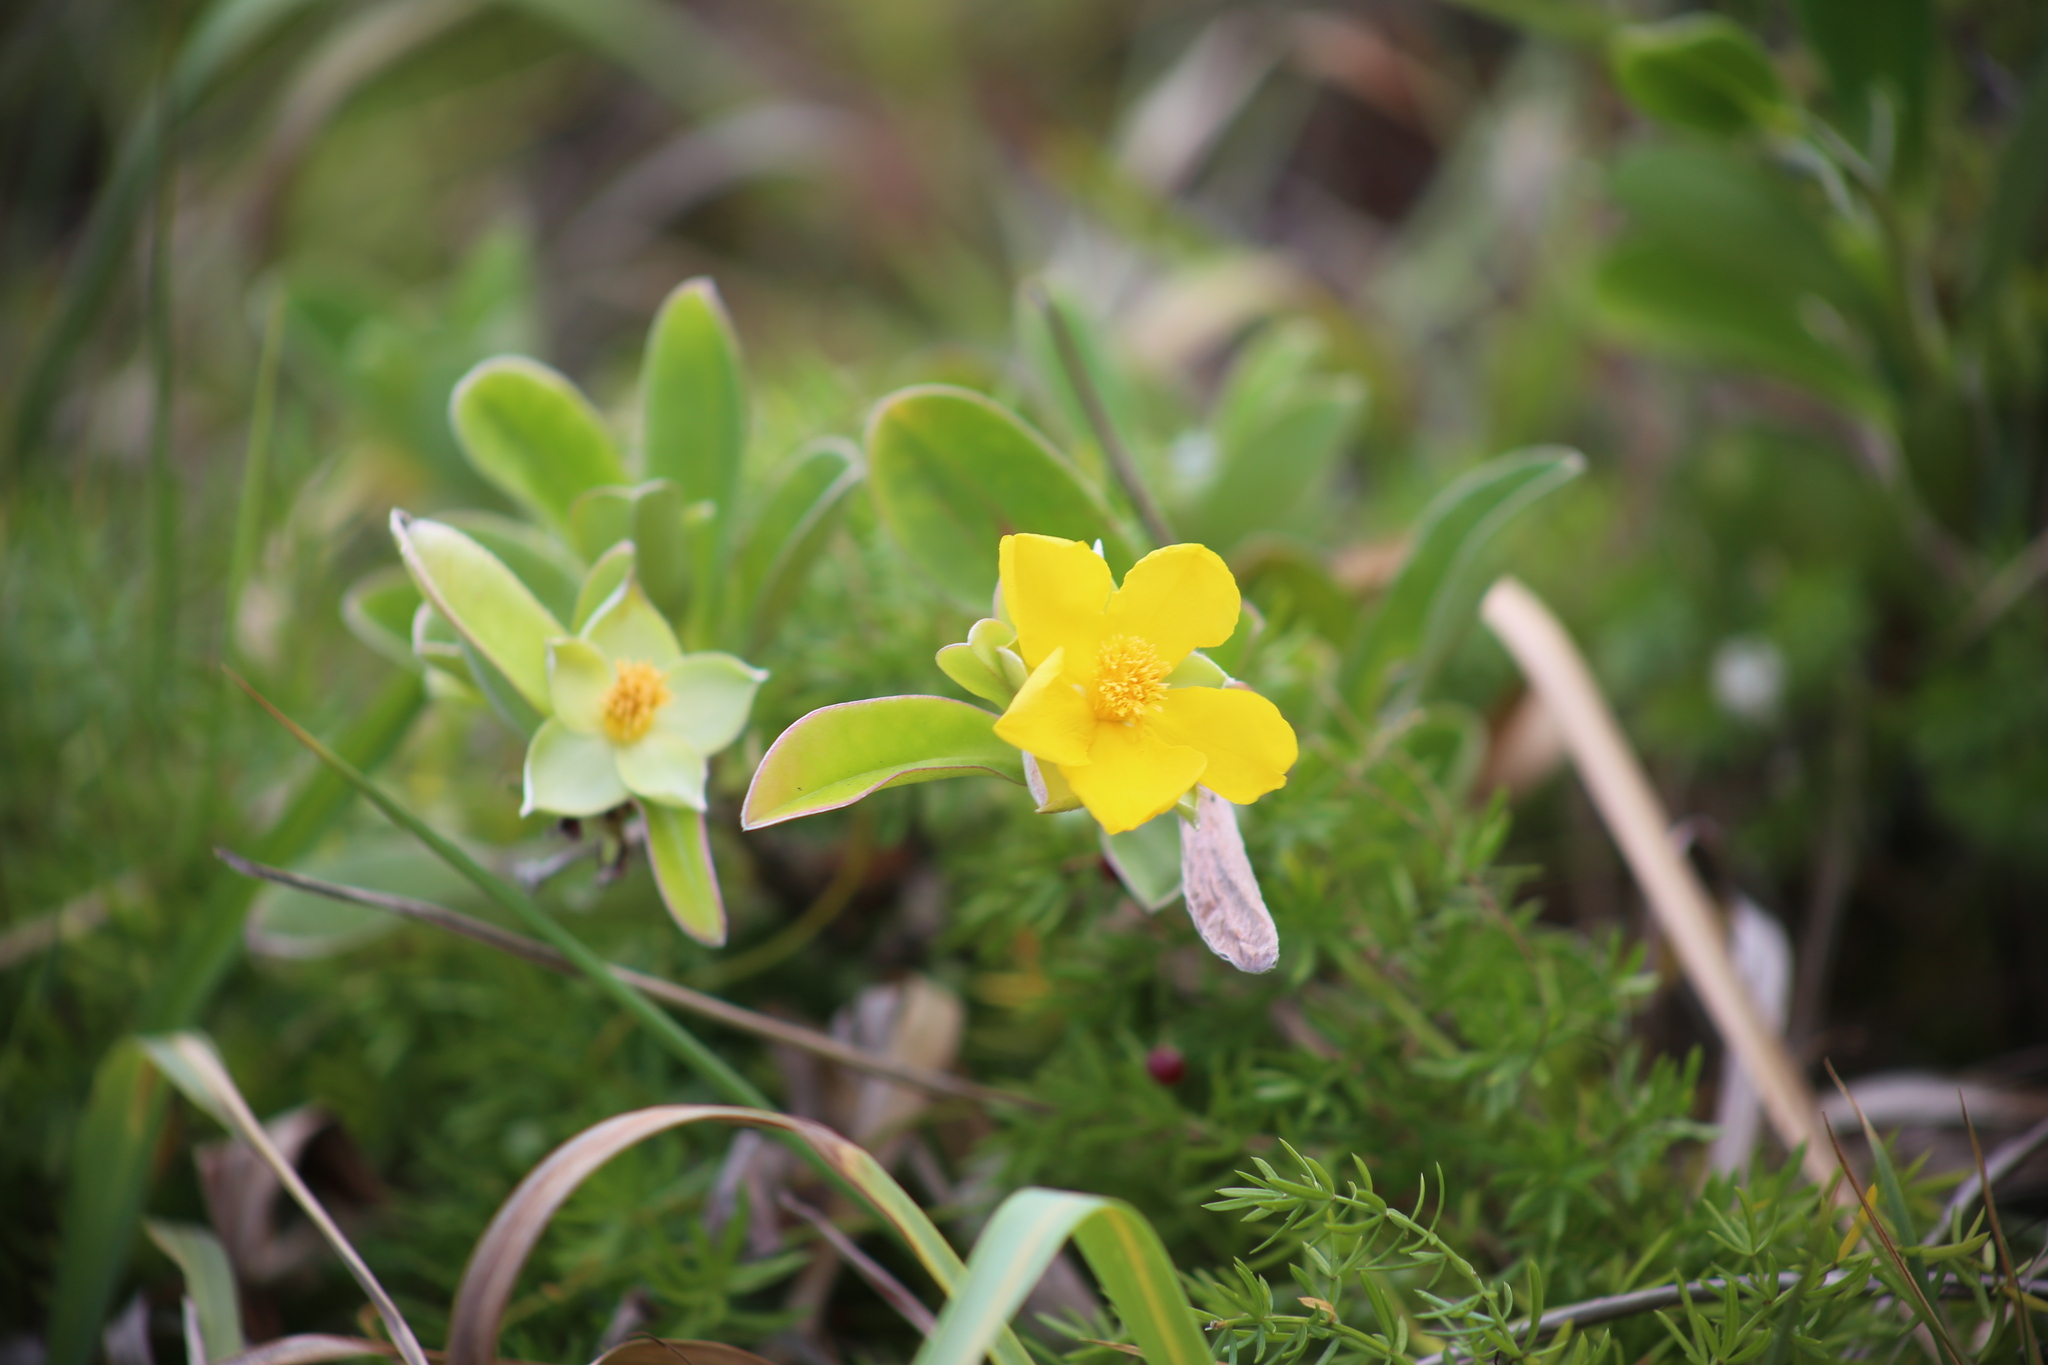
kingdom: Plantae
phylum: Tracheophyta
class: Magnoliopsida
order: Dilleniales
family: Dilleniaceae
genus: Hibbertia
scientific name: Hibbertia scandens
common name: Climbing guinea-flower
